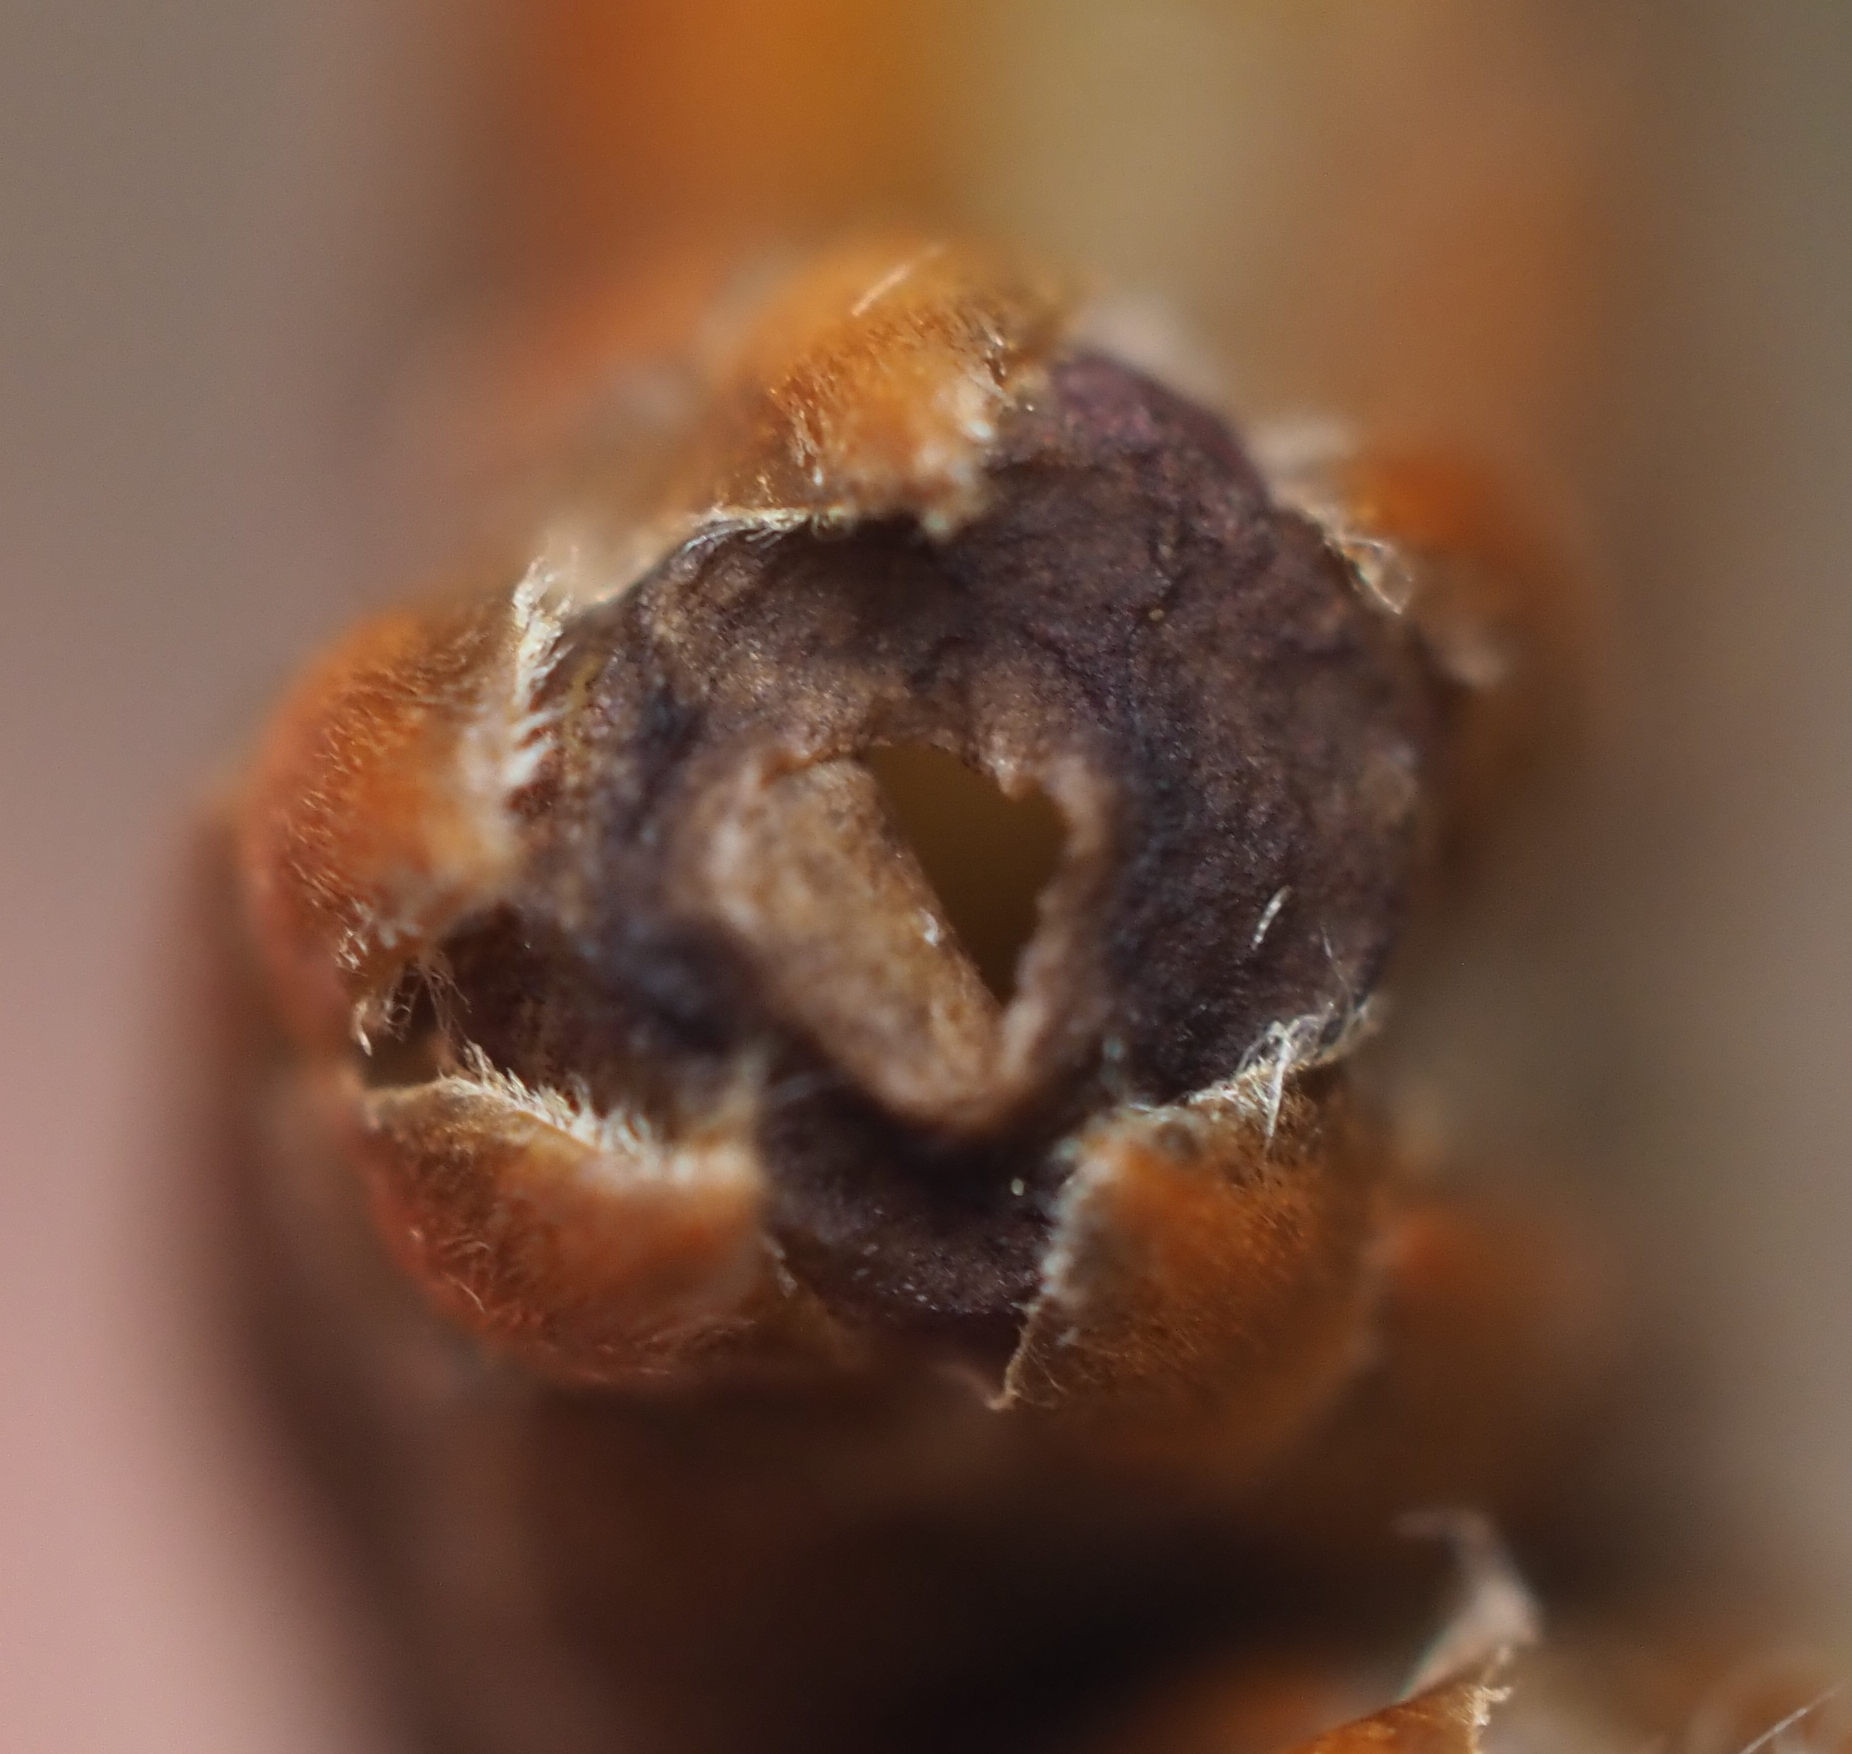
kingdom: Animalia
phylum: Arthropoda
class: Insecta
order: Hymenoptera
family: Cynipidae
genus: Neuroterus
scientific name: Neuroterus
